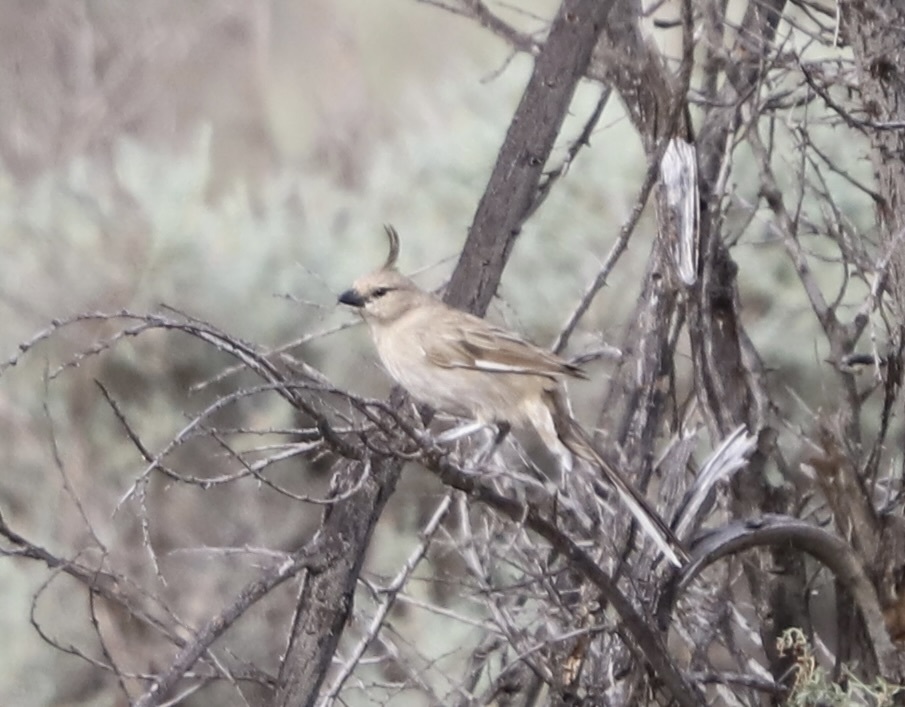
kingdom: Animalia
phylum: Chordata
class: Aves
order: Passeriformes
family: Psophodidae
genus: Psophodes
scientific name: Psophodes cristatus
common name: Chirruping wedgebill
